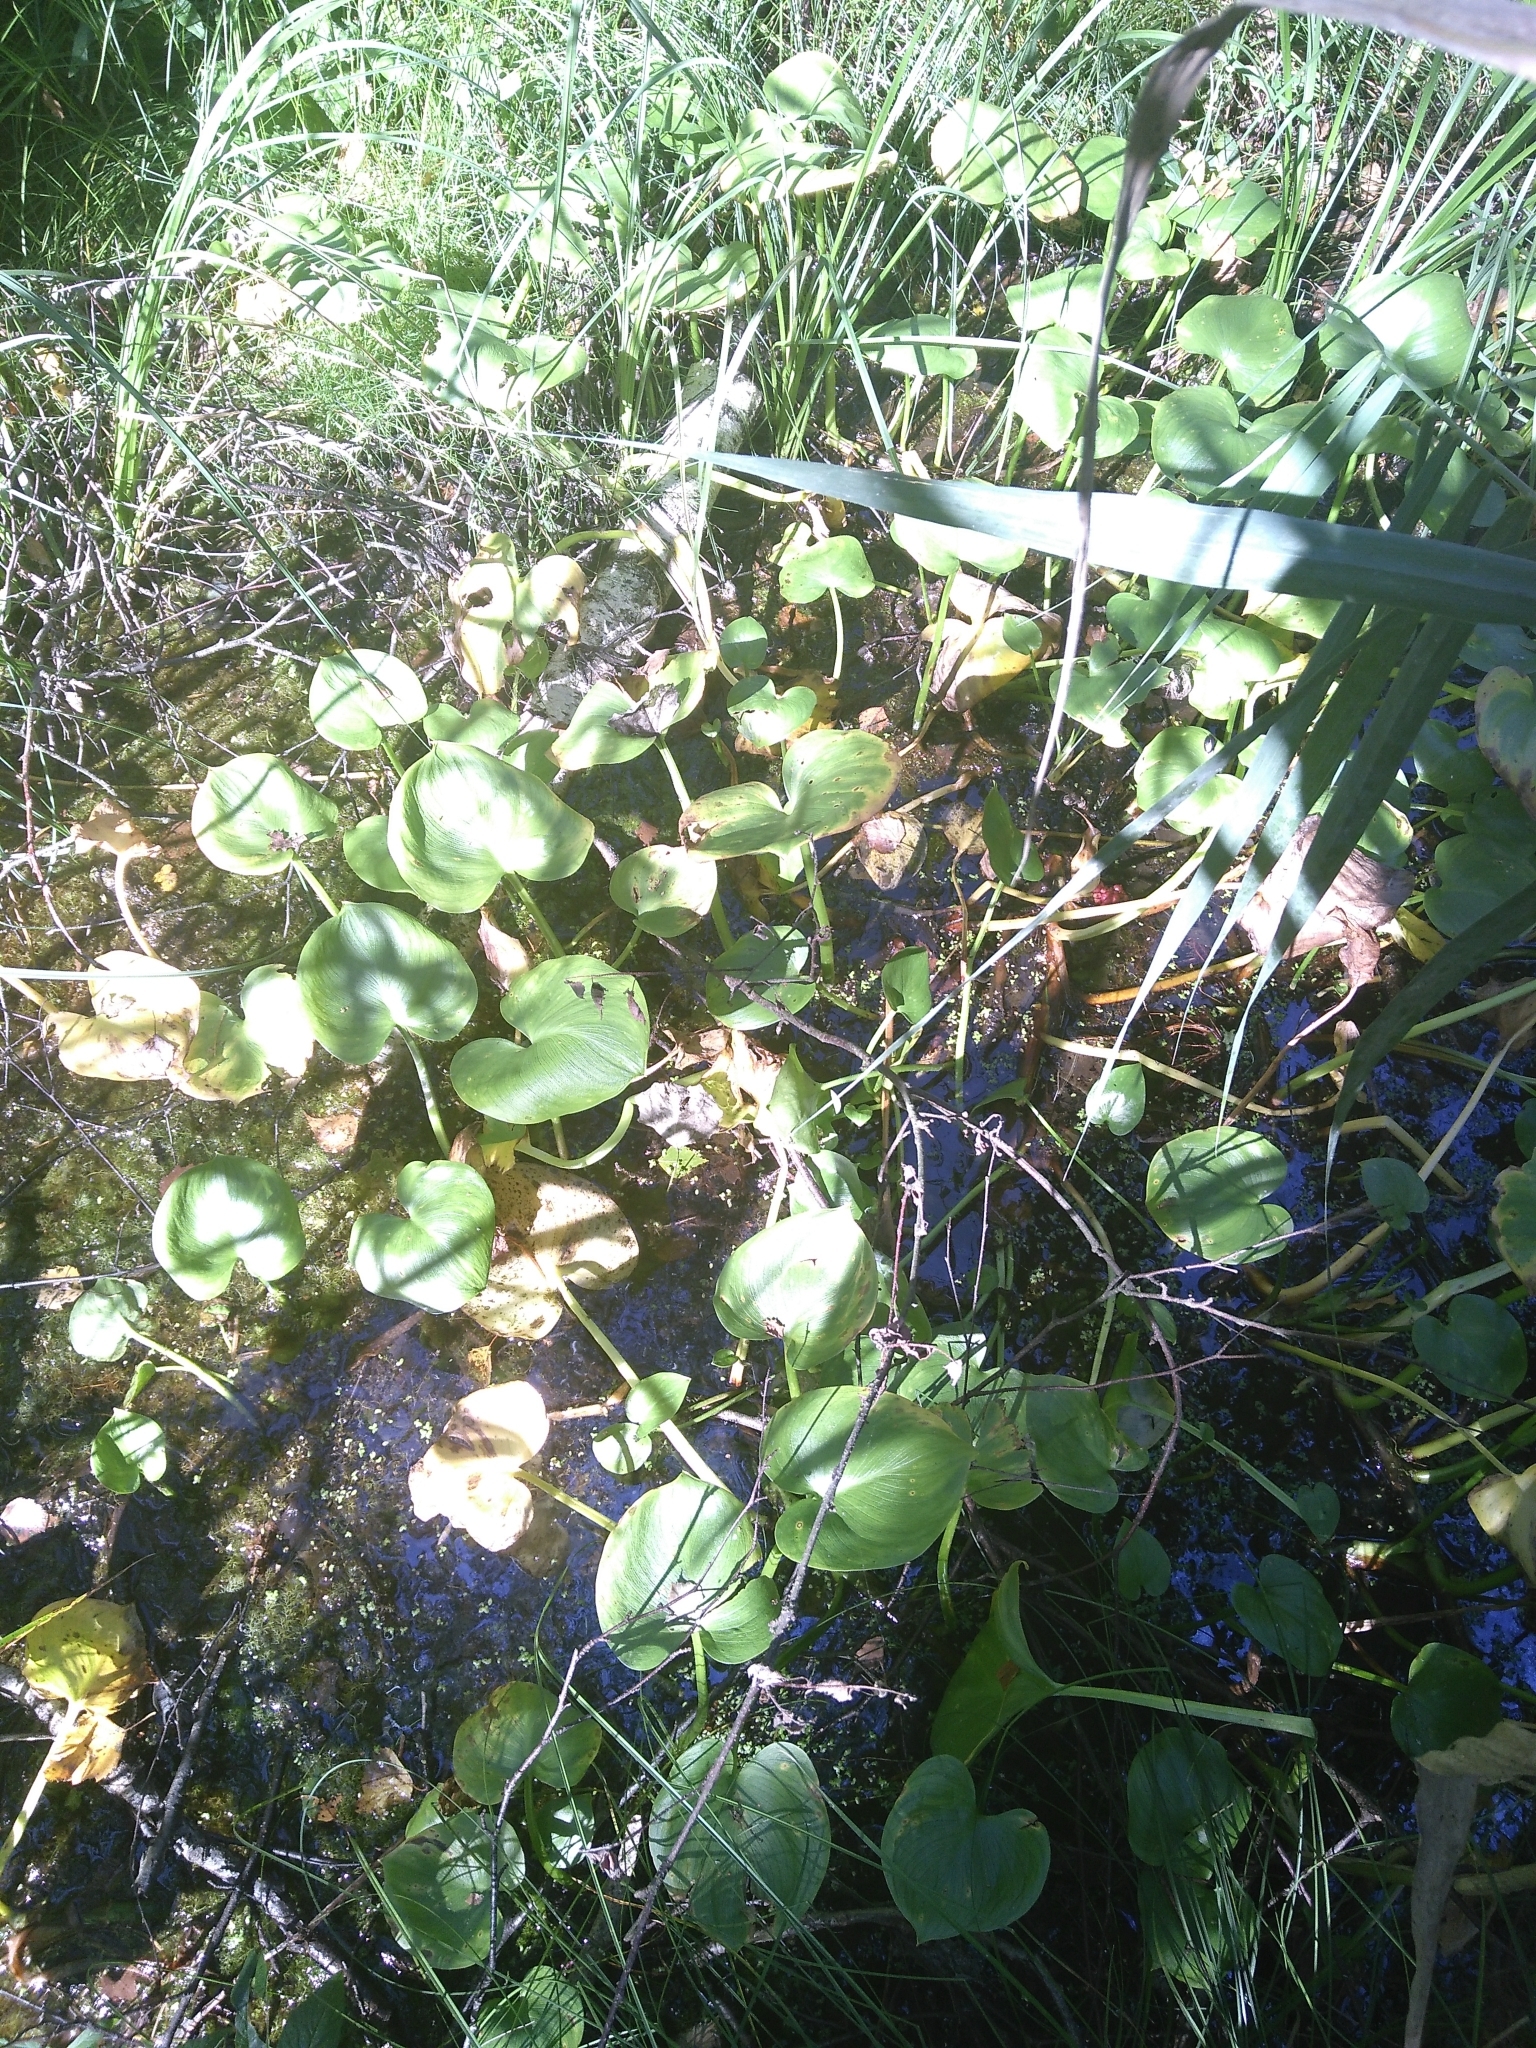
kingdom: Plantae
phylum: Tracheophyta
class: Liliopsida
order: Alismatales
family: Araceae
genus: Calla
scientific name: Calla palustris
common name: Bog arum
